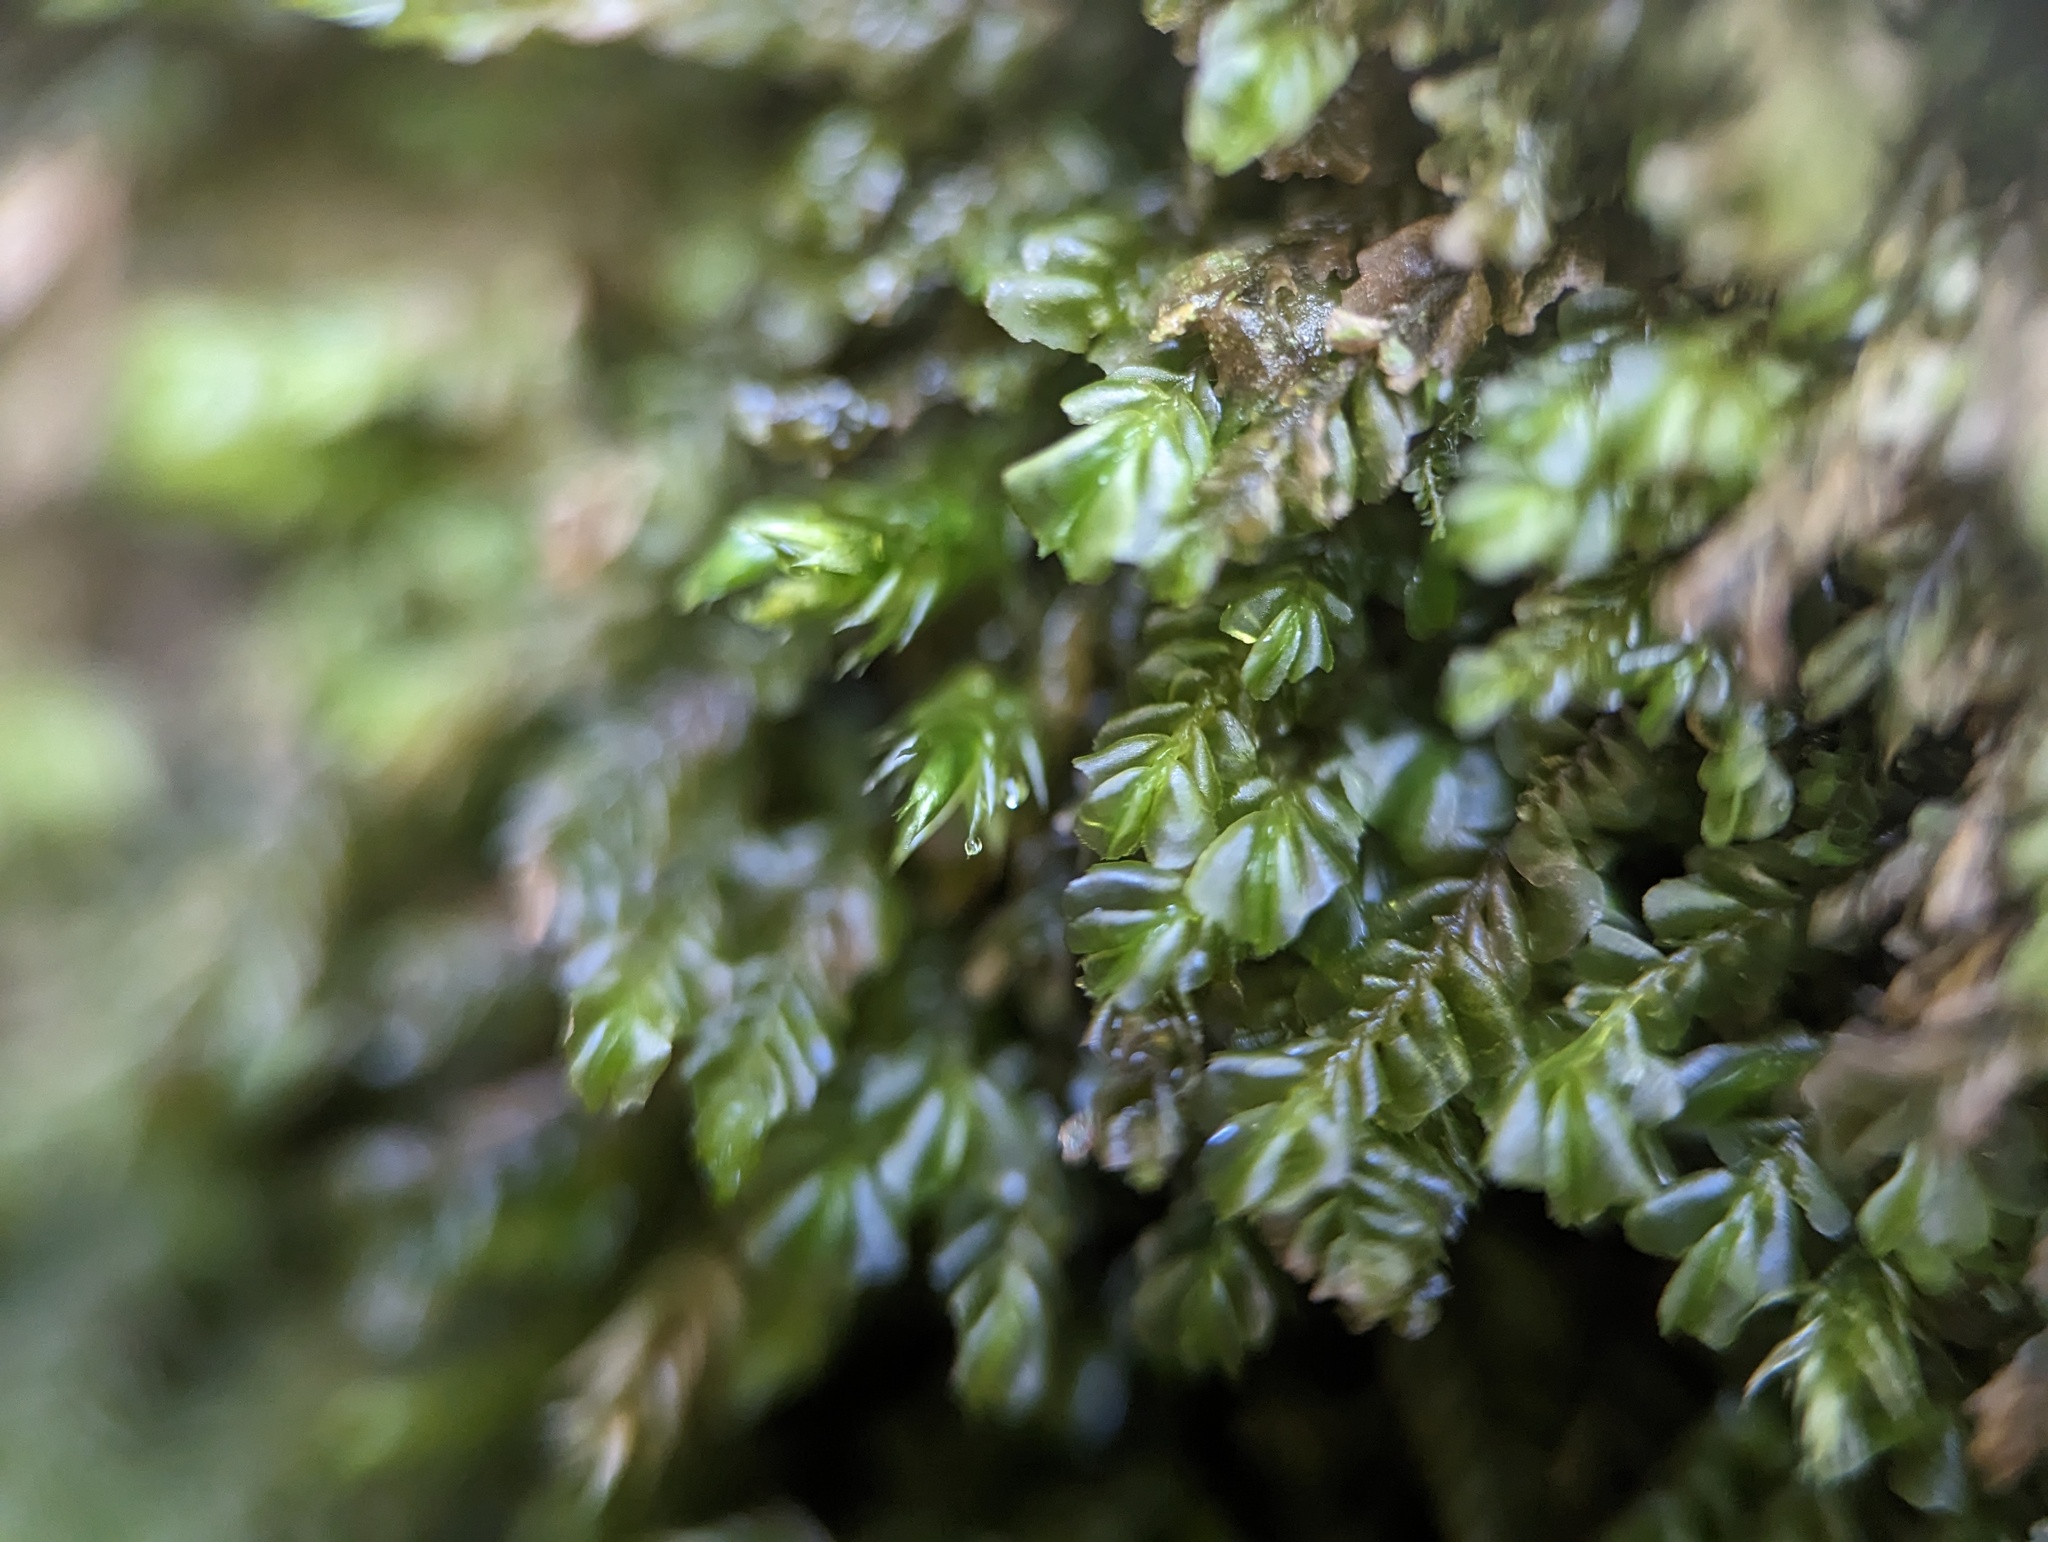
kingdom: Plantae
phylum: Marchantiophyta
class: Jungermanniopsida
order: Jungermanniales
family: Plagiochilaceae
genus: Plagiochila
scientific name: Plagiochila porelloides
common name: Lesser featherwort
